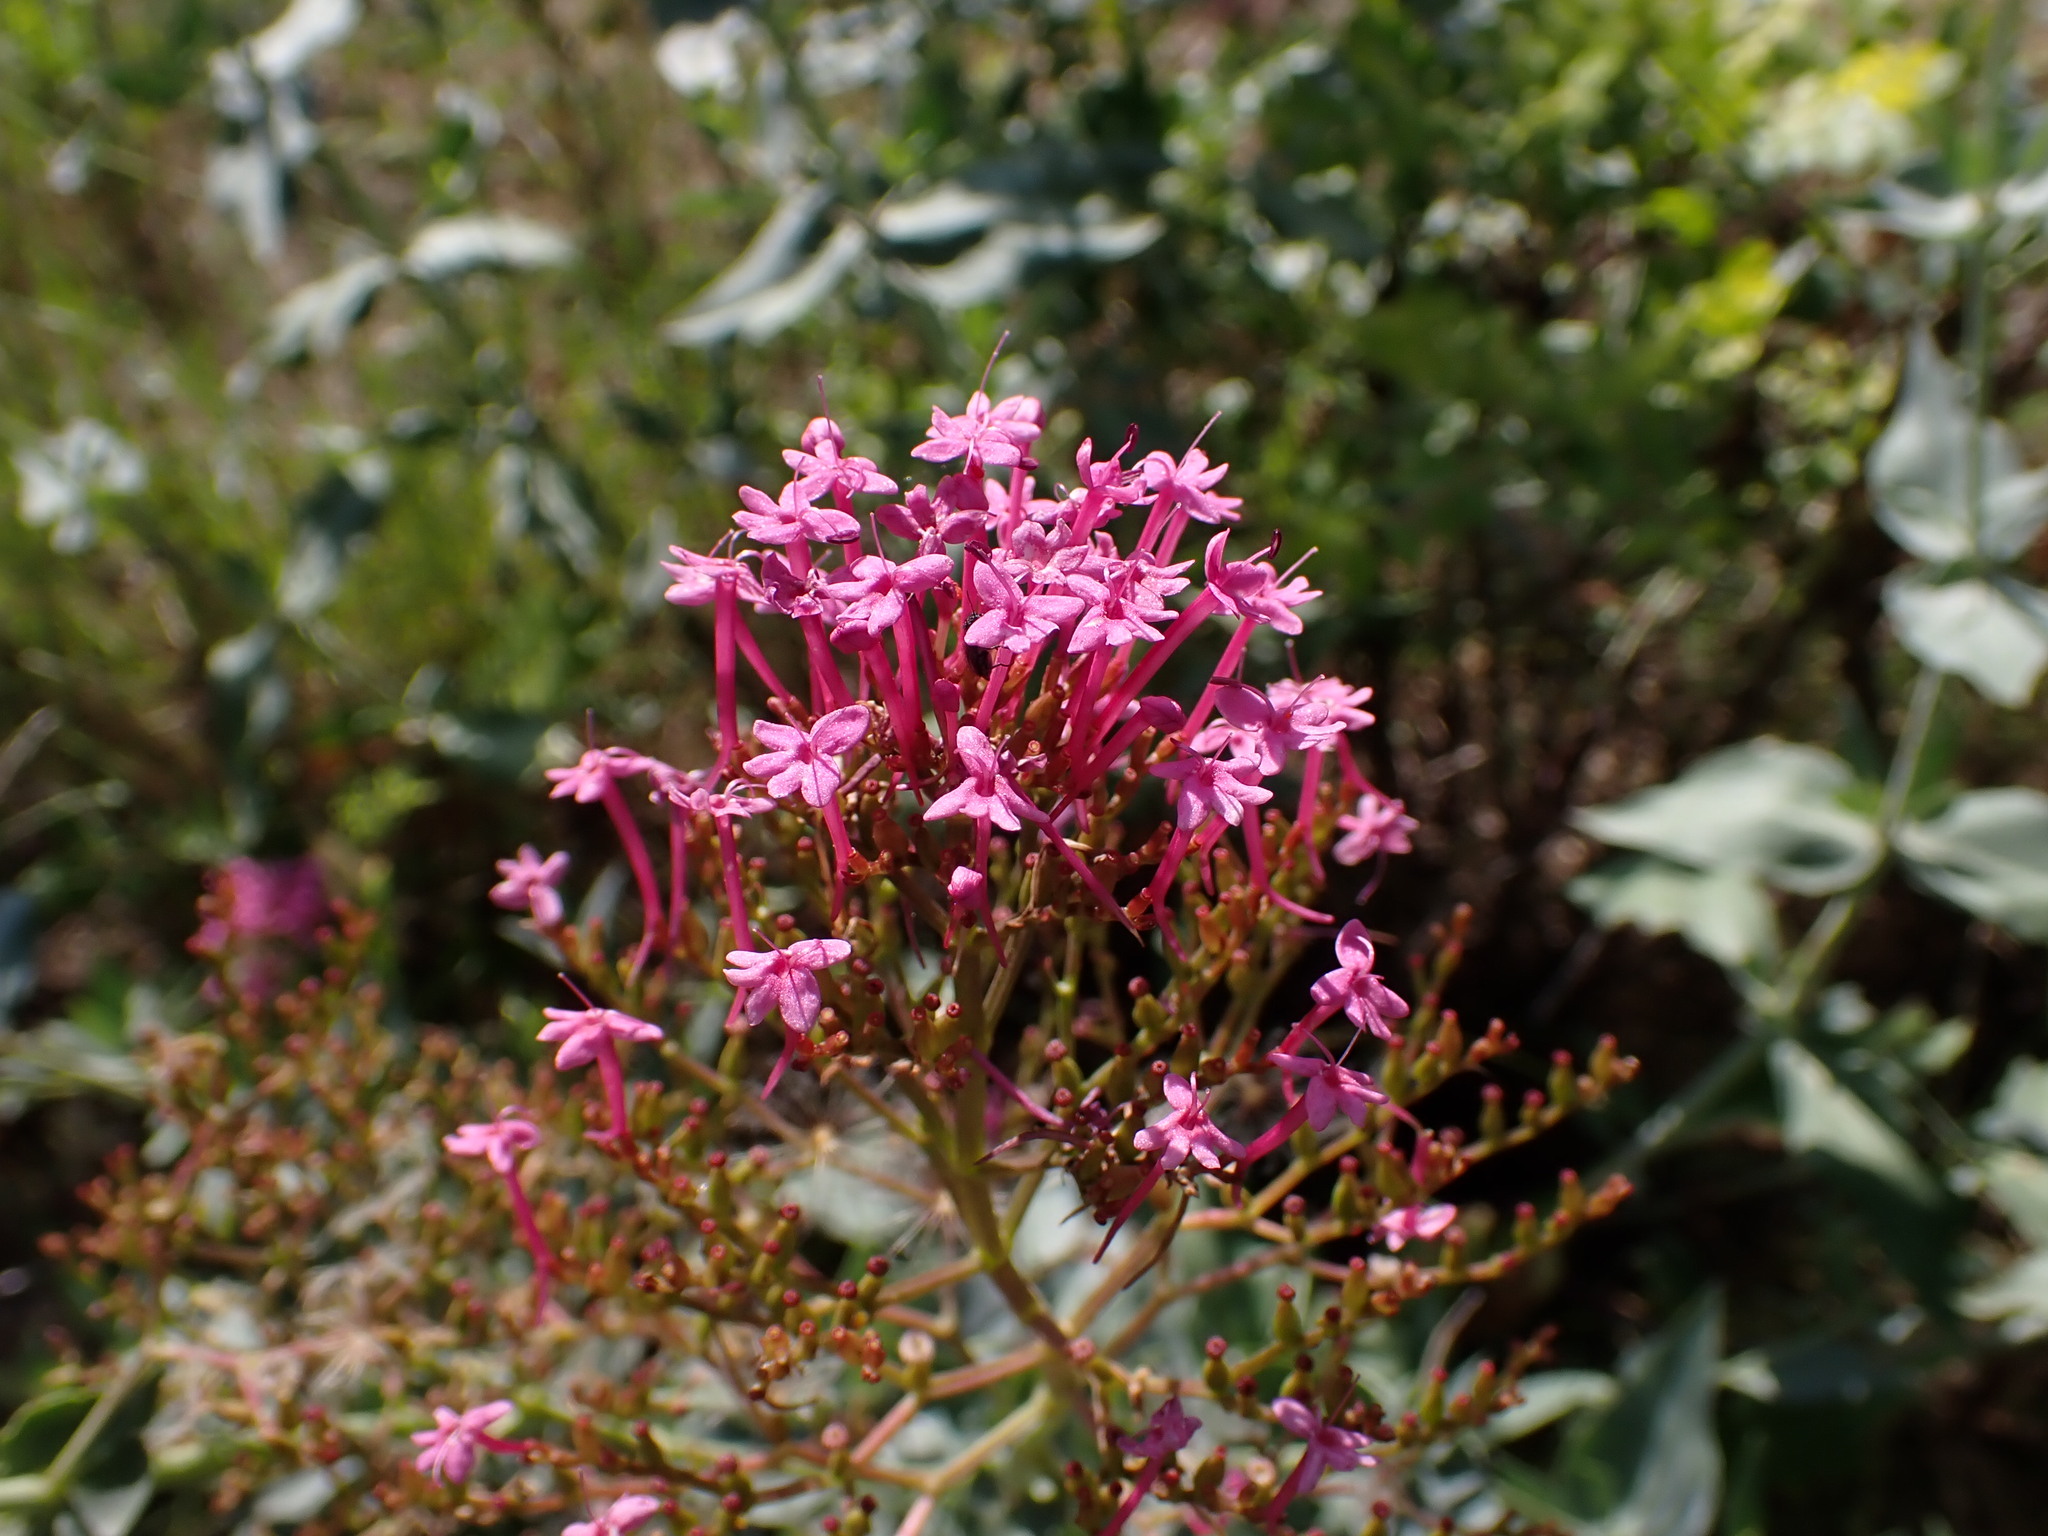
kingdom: Plantae
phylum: Tracheophyta
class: Magnoliopsida
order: Dipsacales
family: Caprifoliaceae
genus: Centranthus
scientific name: Centranthus ruber
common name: Red valerian
